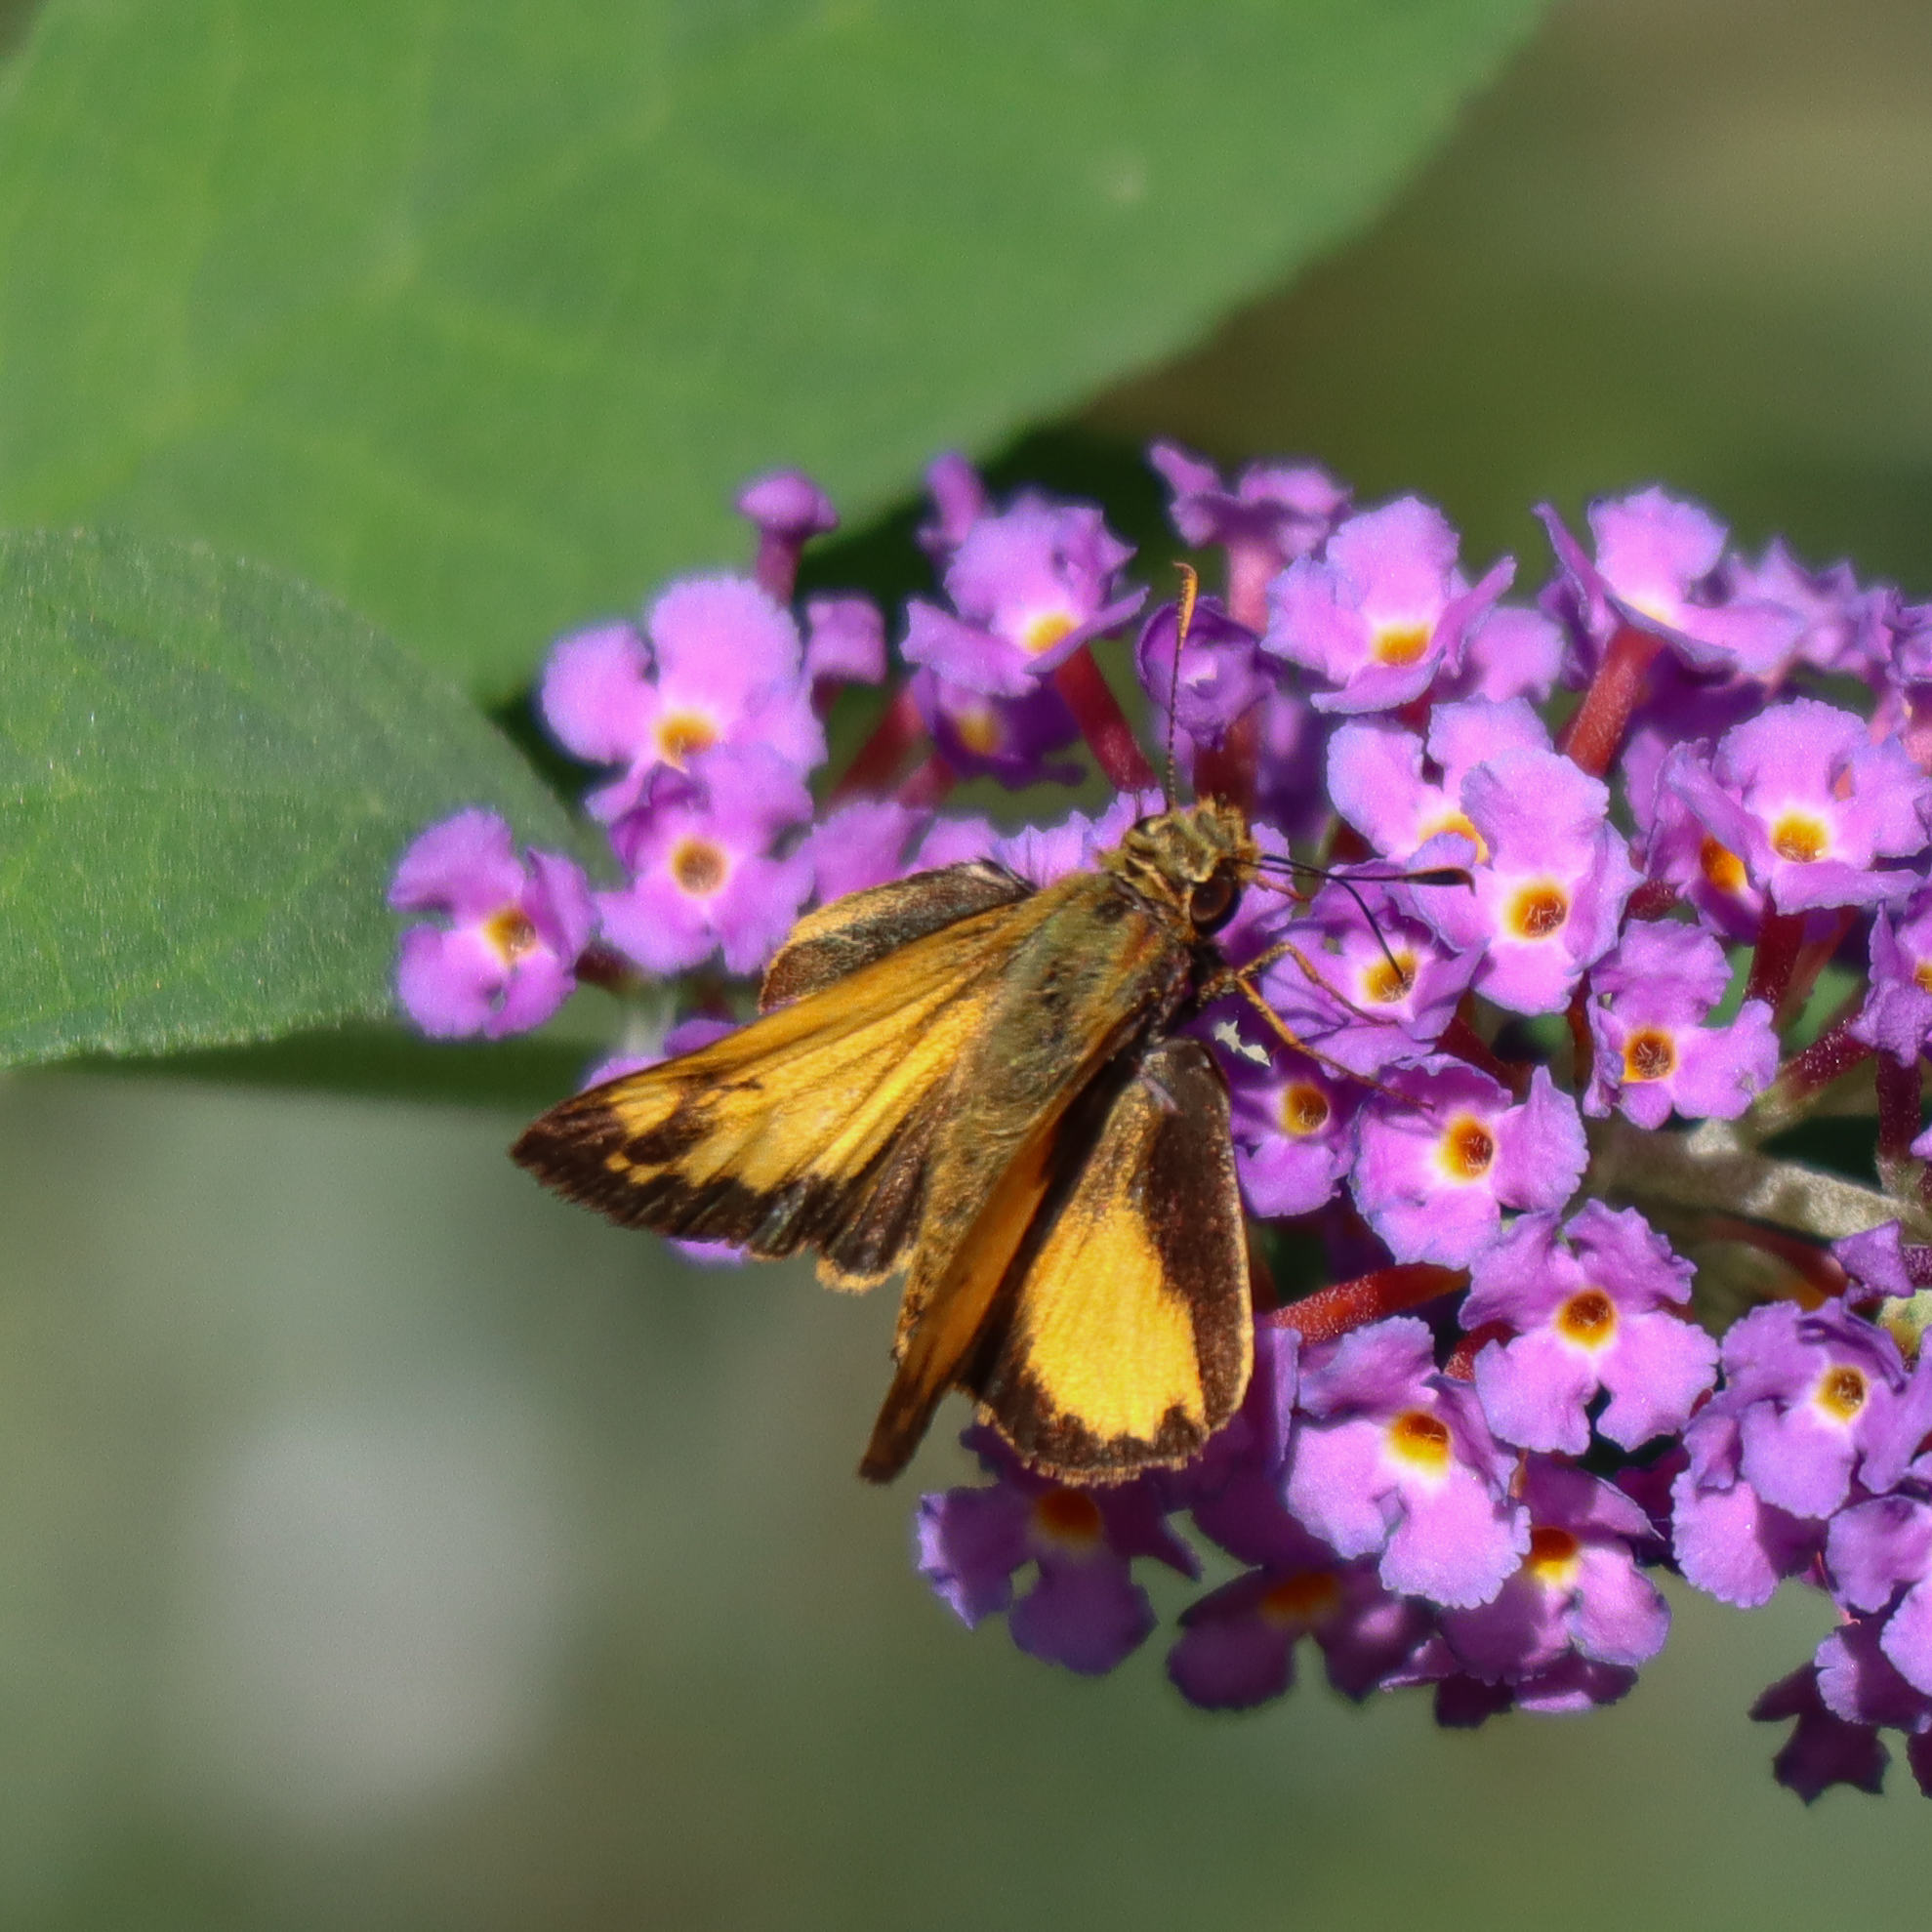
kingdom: Animalia
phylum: Arthropoda
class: Insecta
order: Lepidoptera
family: Hesperiidae
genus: Lon
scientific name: Lon zabulon
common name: Zabulon skipper
